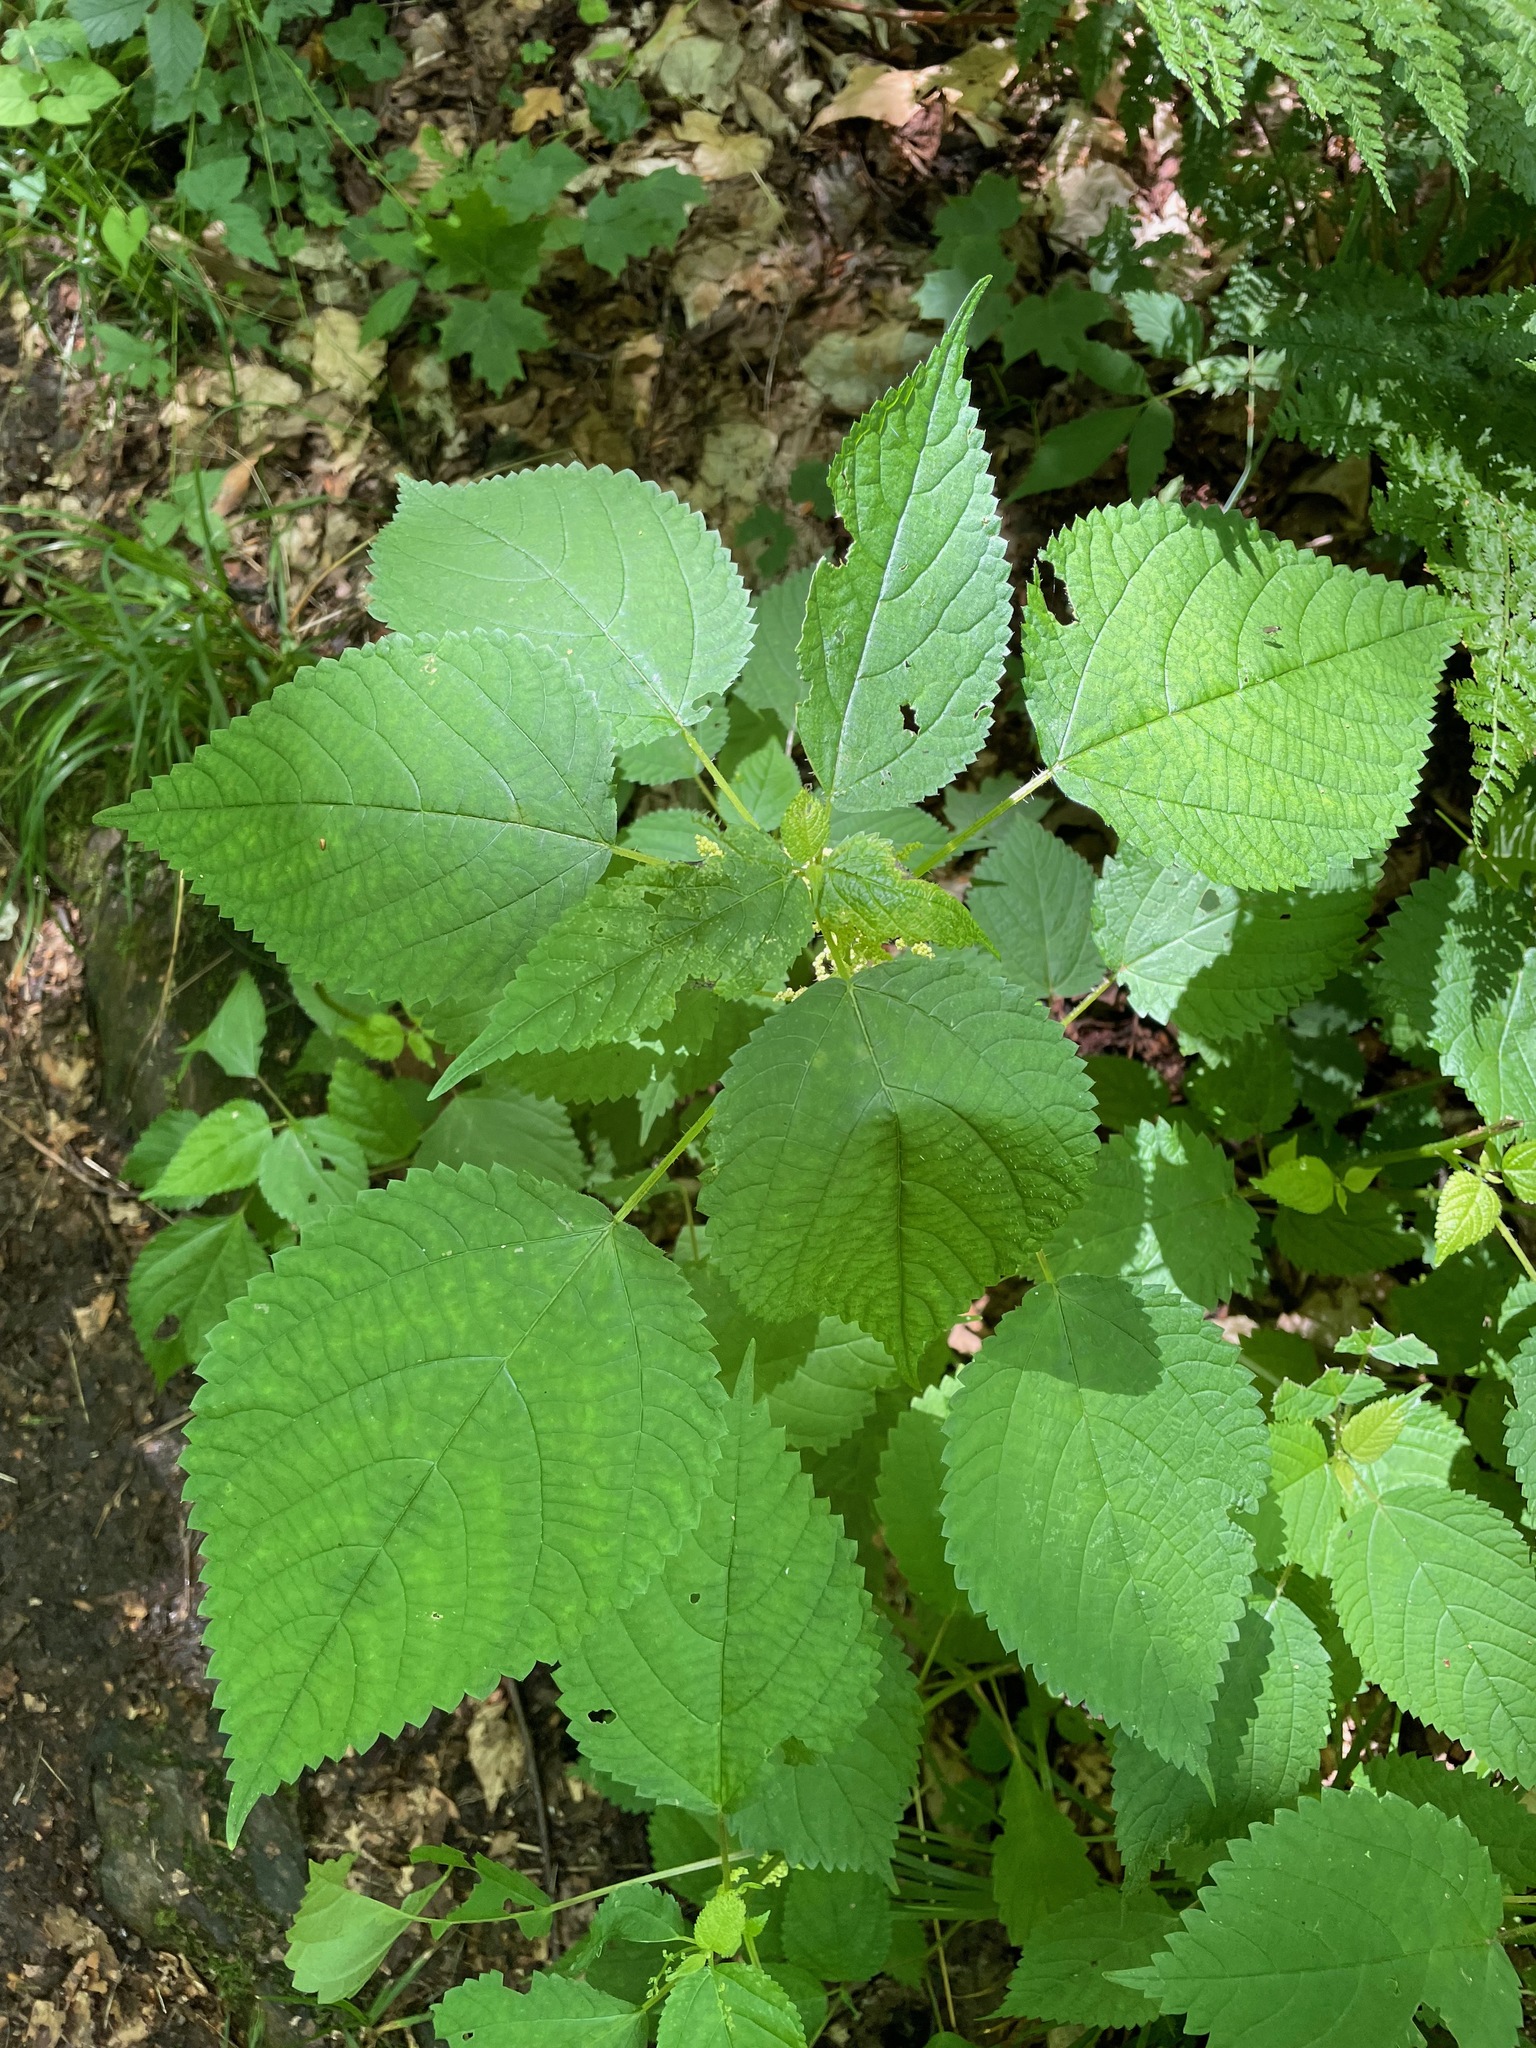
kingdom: Plantae
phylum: Tracheophyta
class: Magnoliopsida
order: Rosales
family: Urticaceae
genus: Laportea
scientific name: Laportea canadensis
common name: Canada nettle
